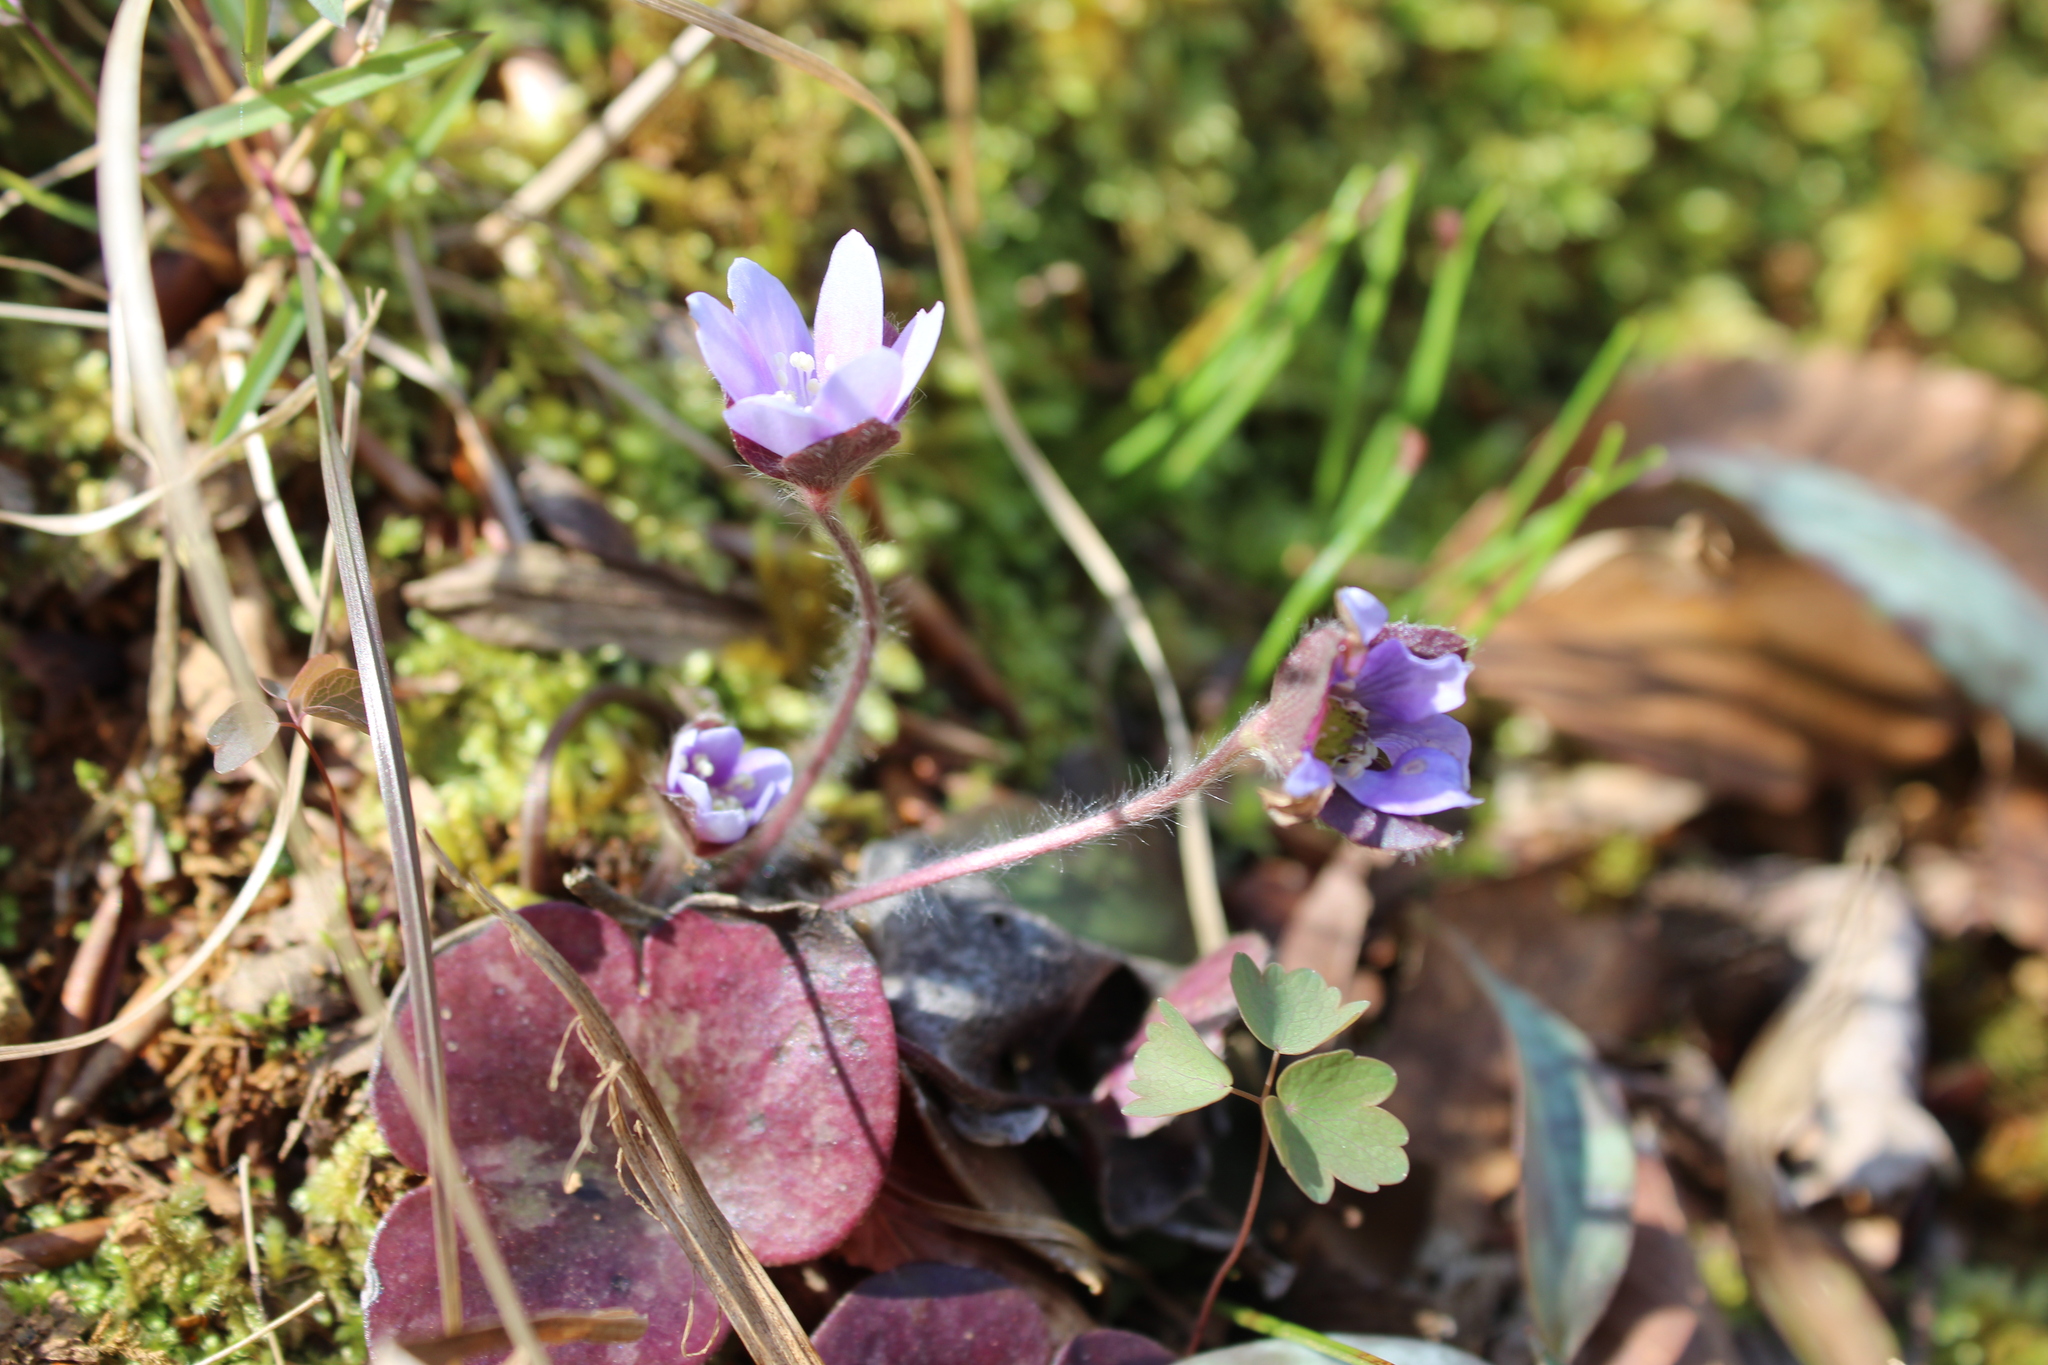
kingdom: Plantae
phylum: Tracheophyta
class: Magnoliopsida
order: Ranunculales
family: Ranunculaceae
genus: Hepatica
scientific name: Hepatica americana
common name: American hepatica
